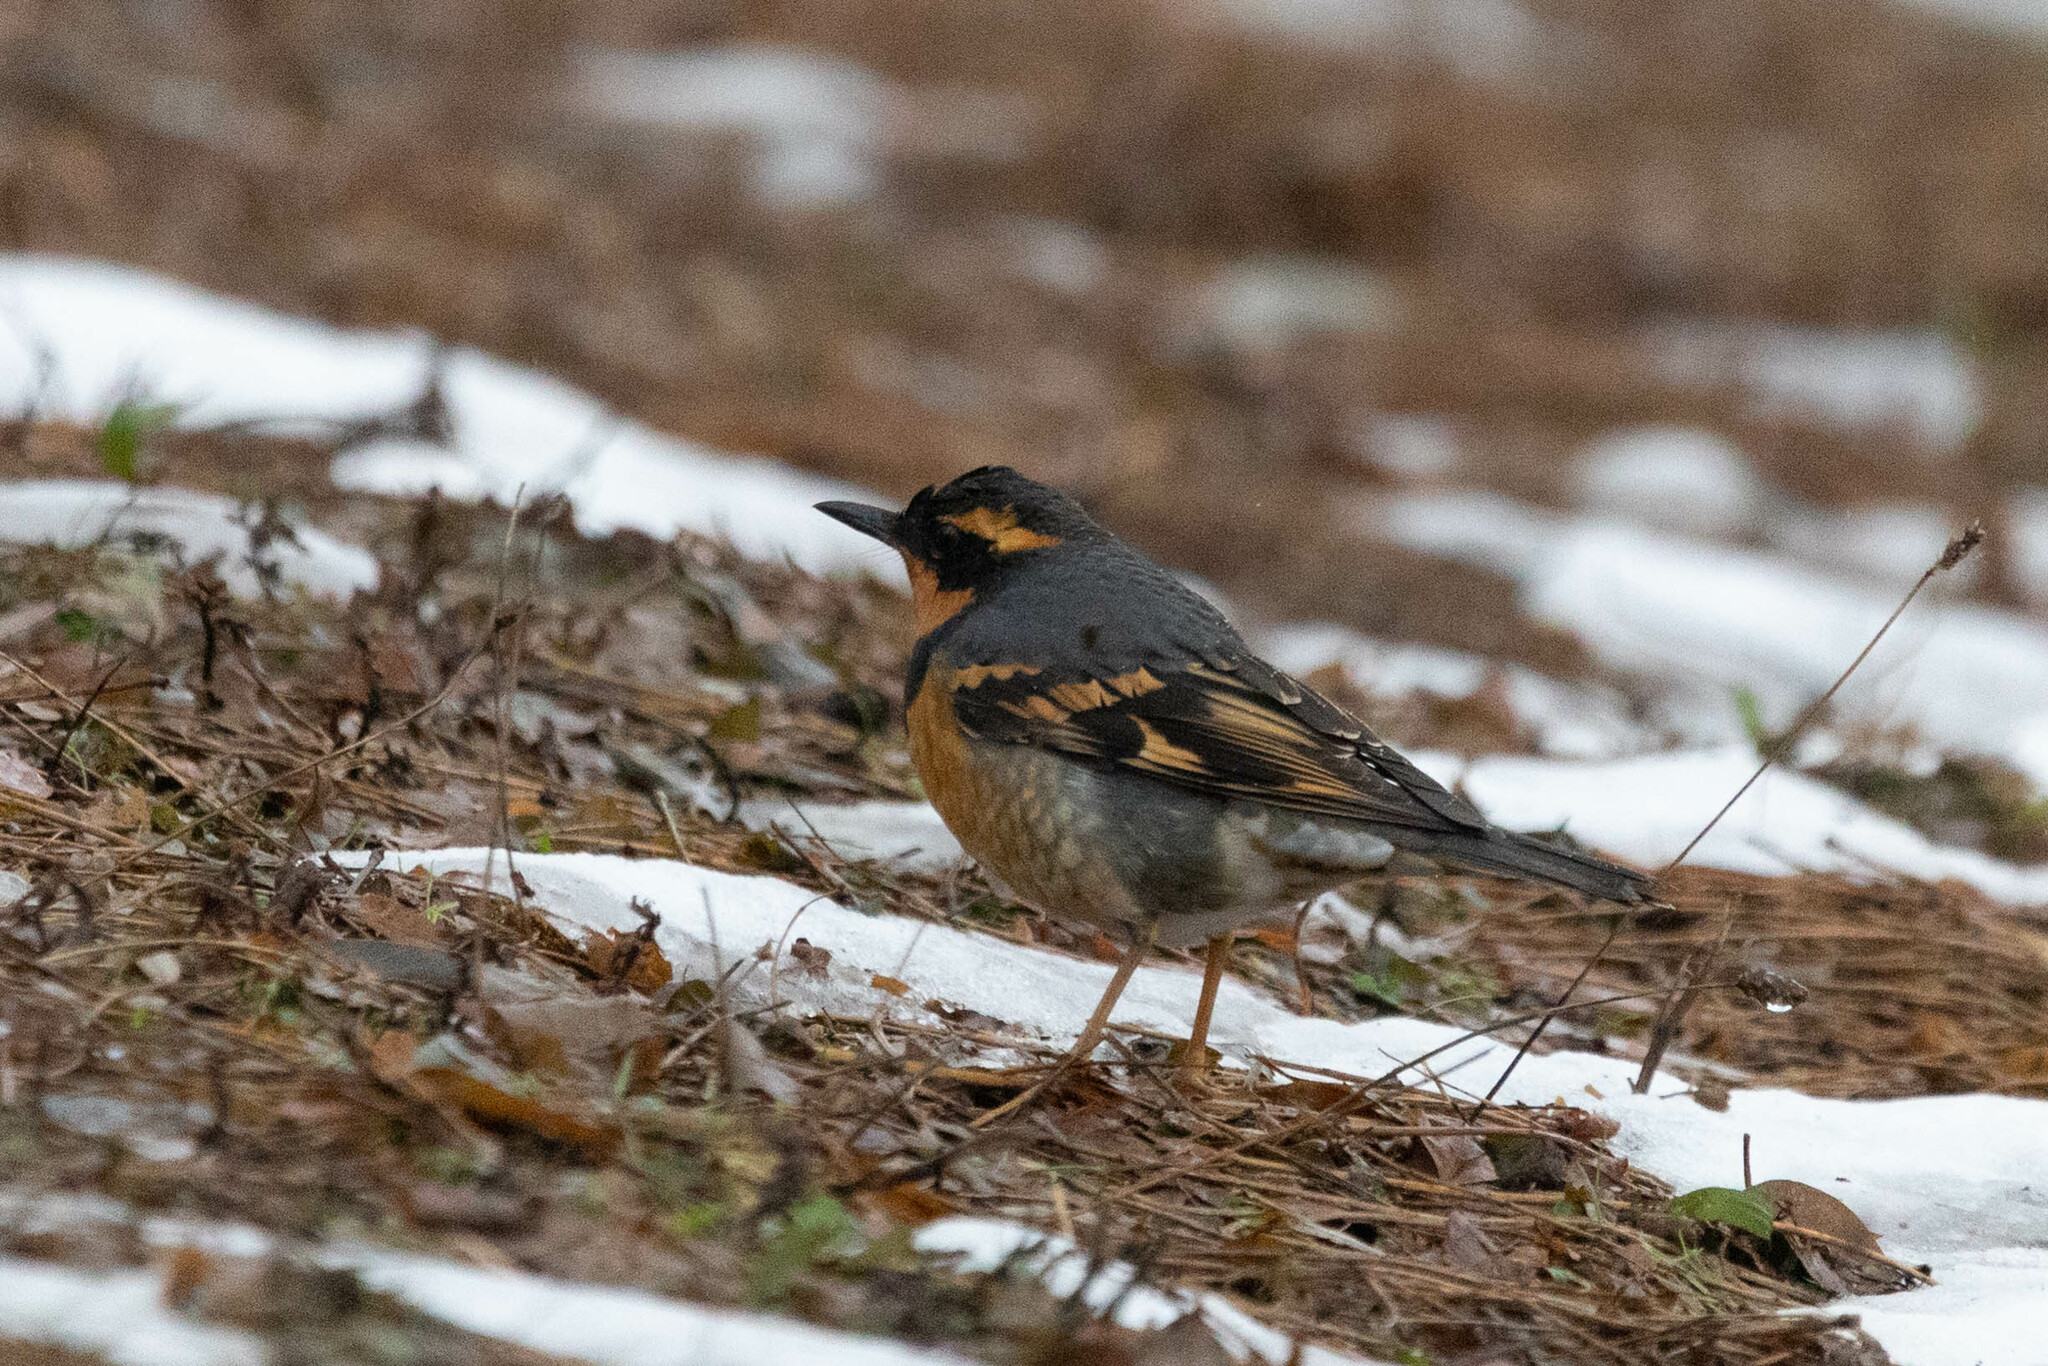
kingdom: Animalia
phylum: Chordata
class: Aves
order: Passeriformes
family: Turdidae
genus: Ixoreus
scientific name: Ixoreus naevius
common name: Varied thrush
